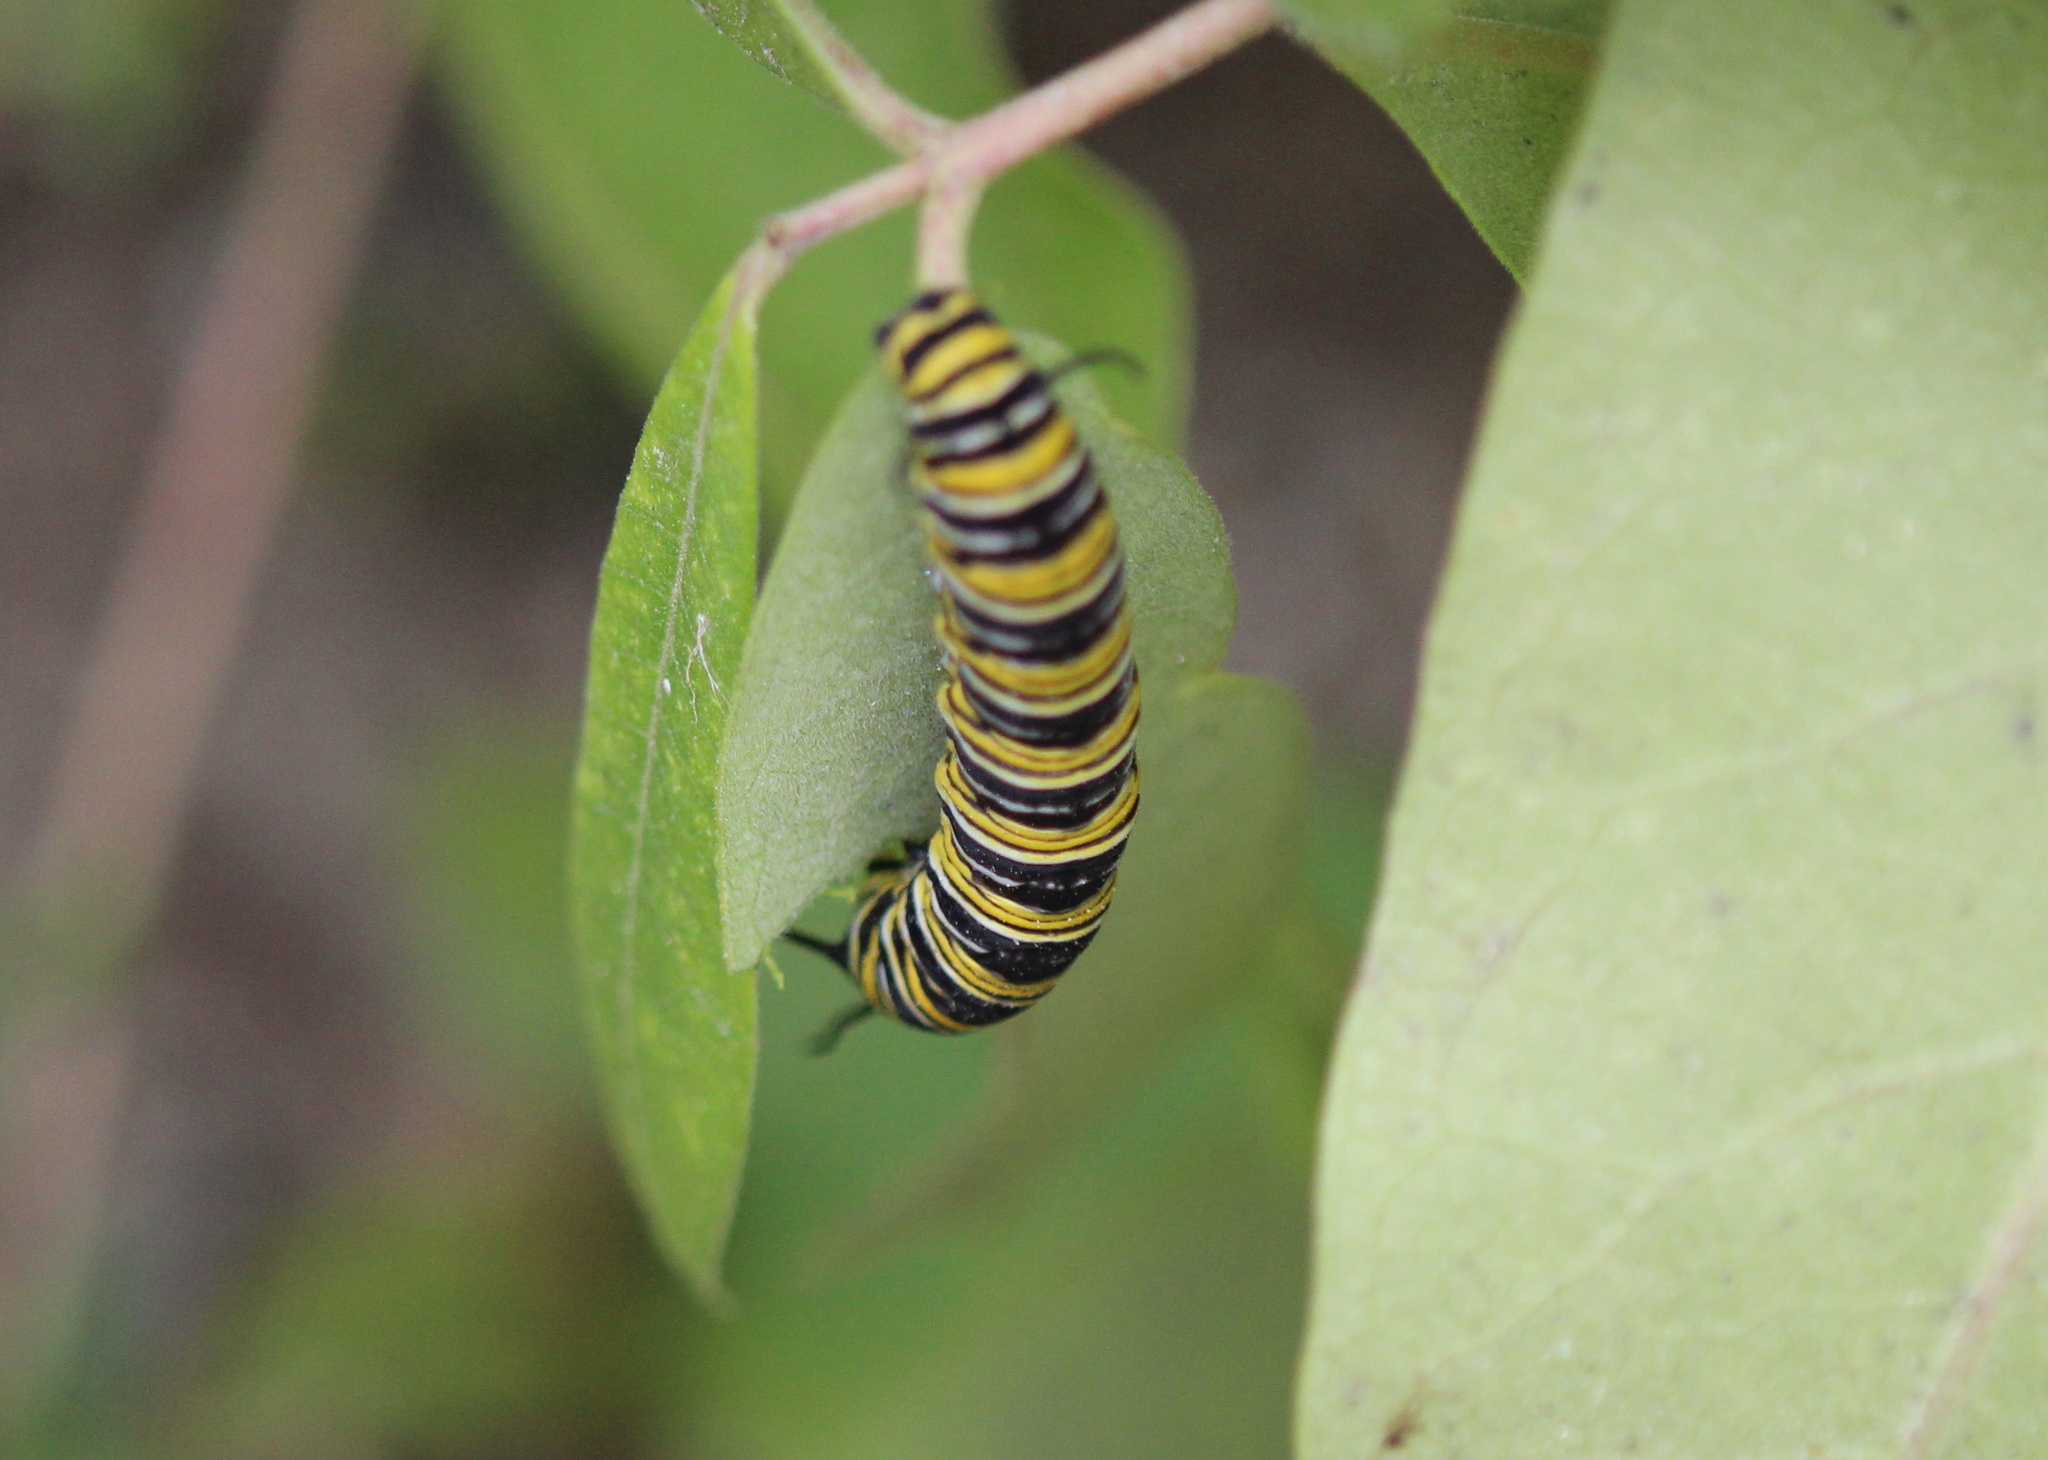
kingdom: Animalia
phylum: Arthropoda
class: Insecta
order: Lepidoptera
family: Nymphalidae
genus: Danaus
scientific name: Danaus plexippus
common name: Monarch
